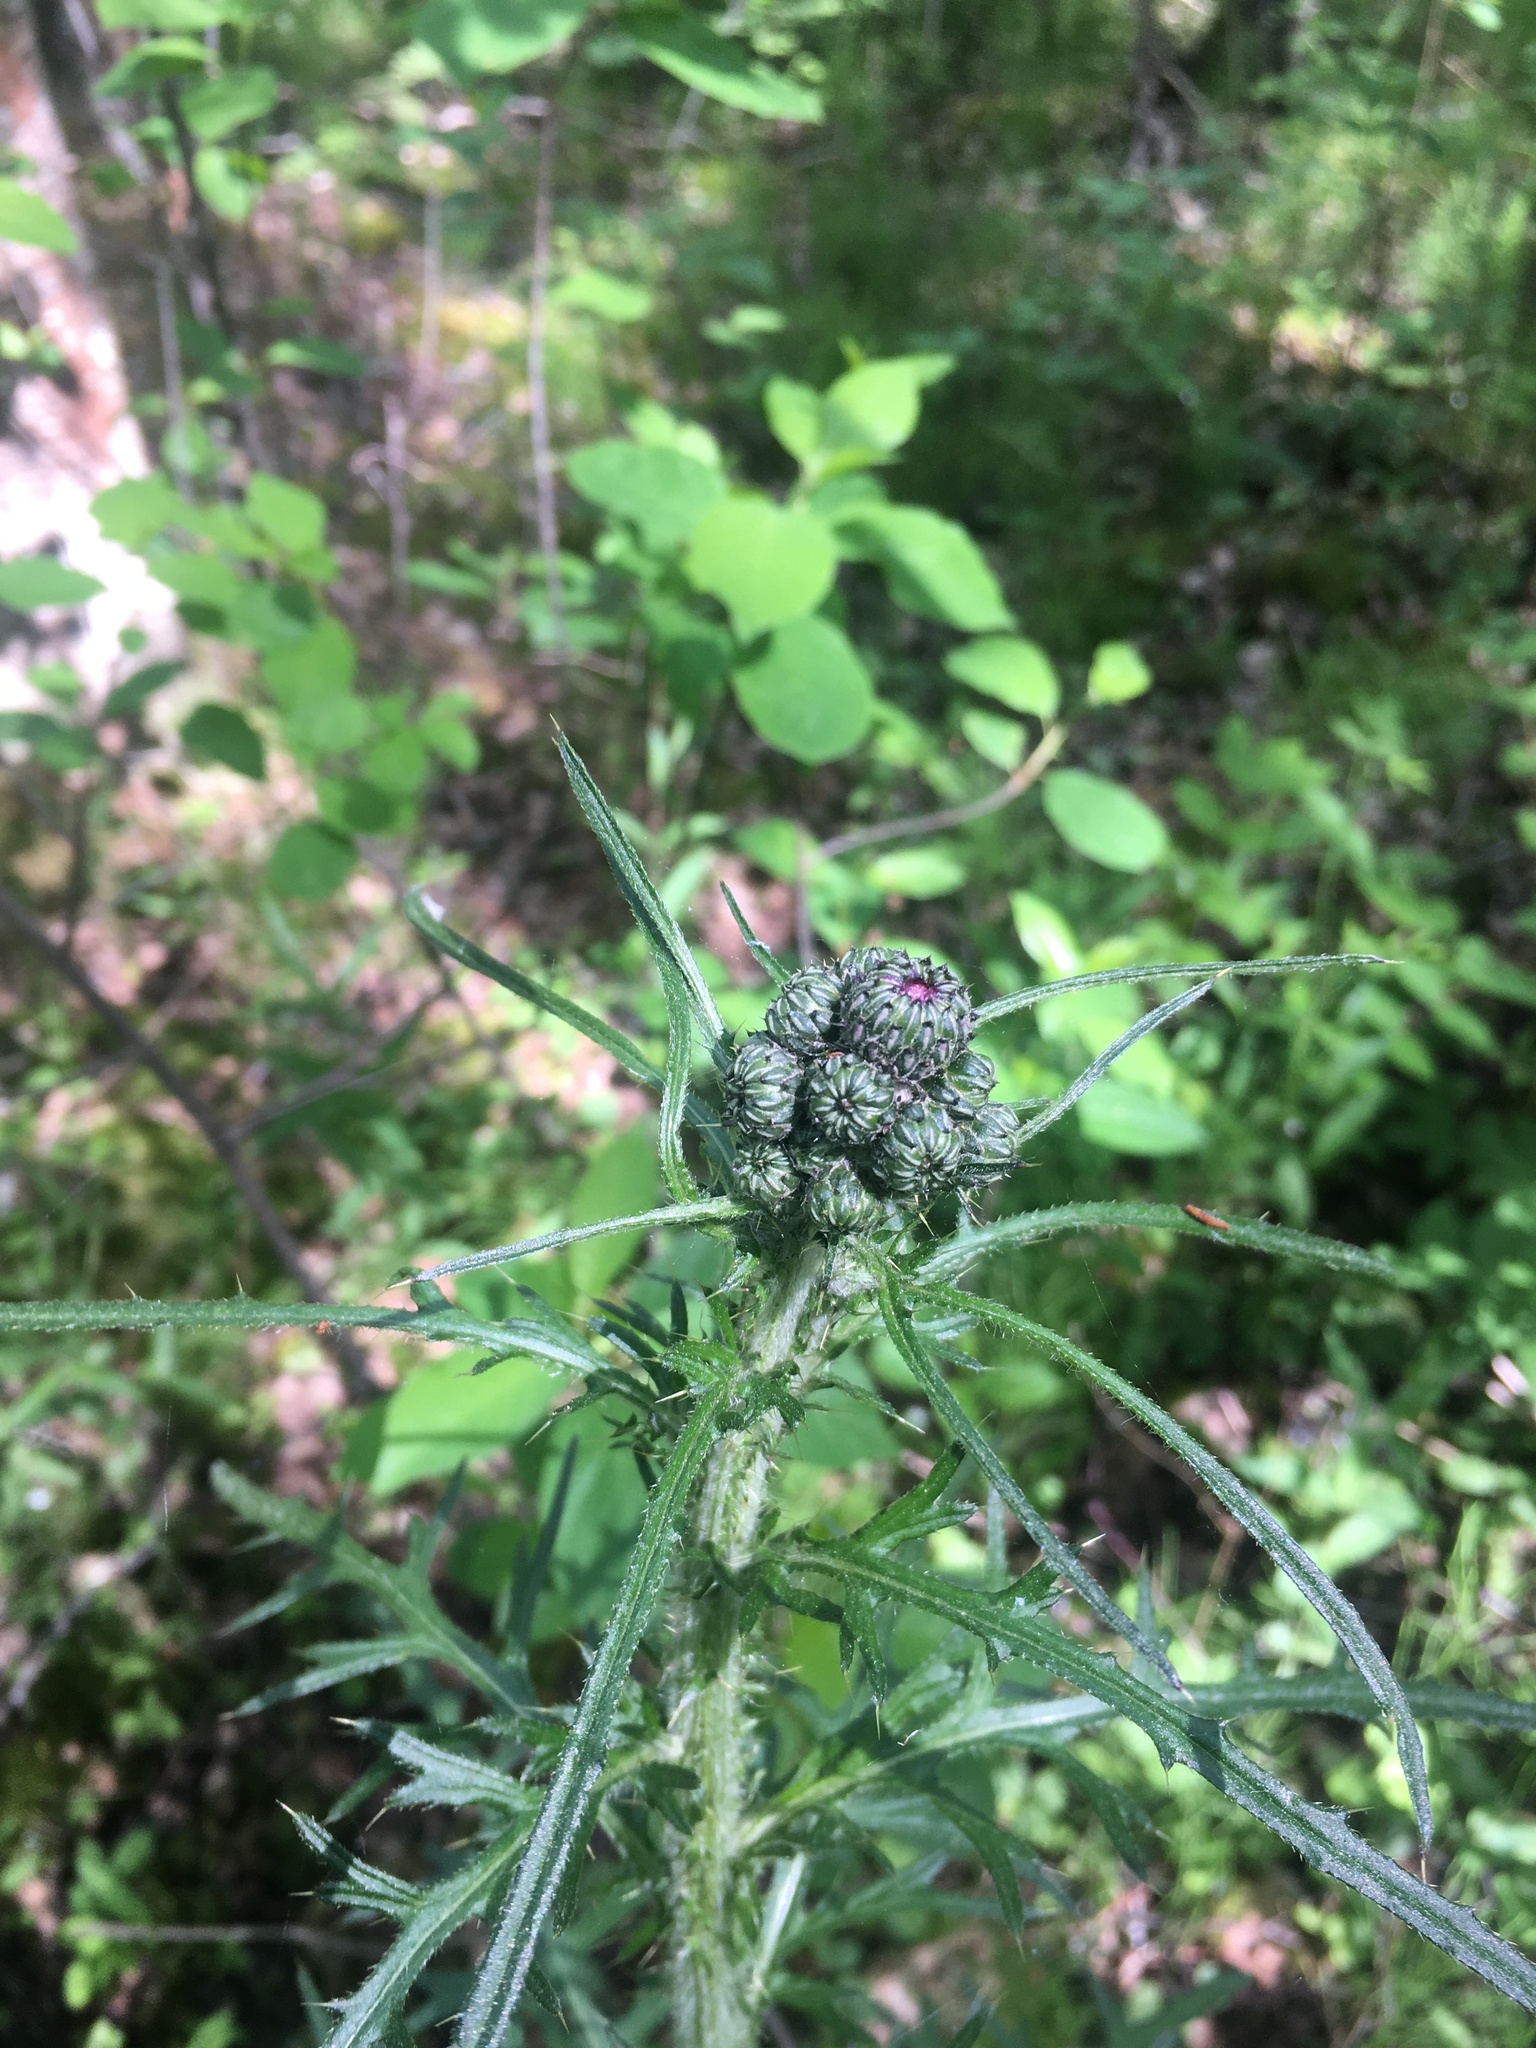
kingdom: Plantae
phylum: Tracheophyta
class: Magnoliopsida
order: Asterales
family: Asteraceae
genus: Cirsium
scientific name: Cirsium palustre
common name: Marsh thistle
